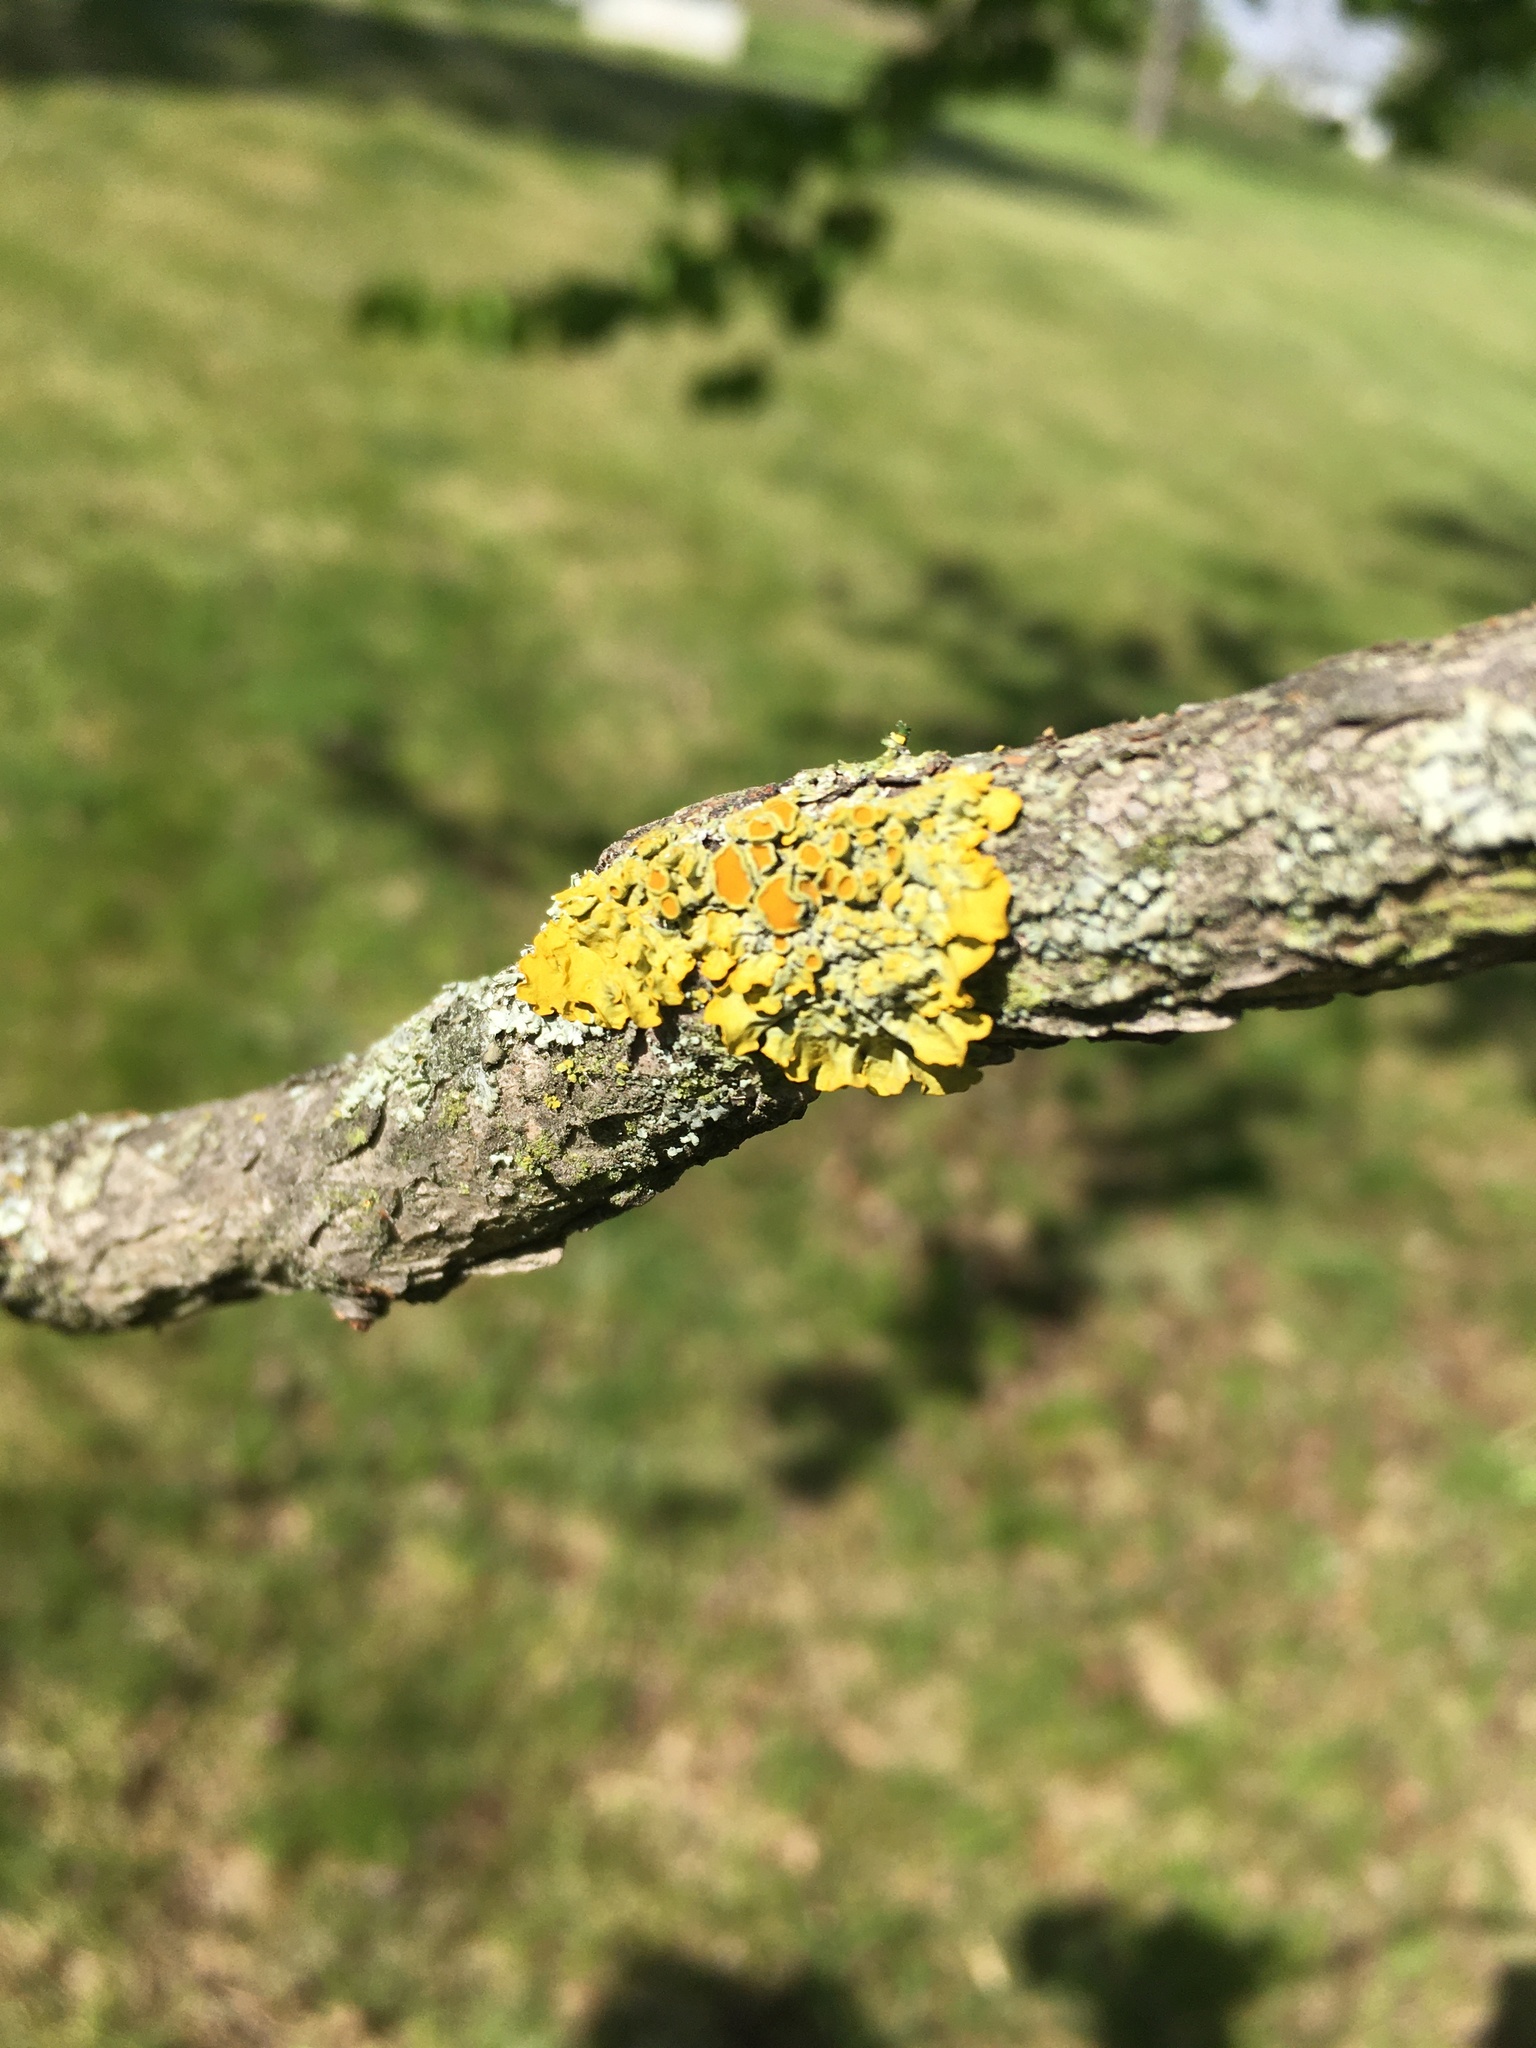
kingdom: Fungi
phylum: Ascomycota
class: Lecanoromycetes
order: Teloschistales
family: Teloschistaceae
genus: Xanthoria
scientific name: Xanthoria parietina
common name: Common orange lichen
